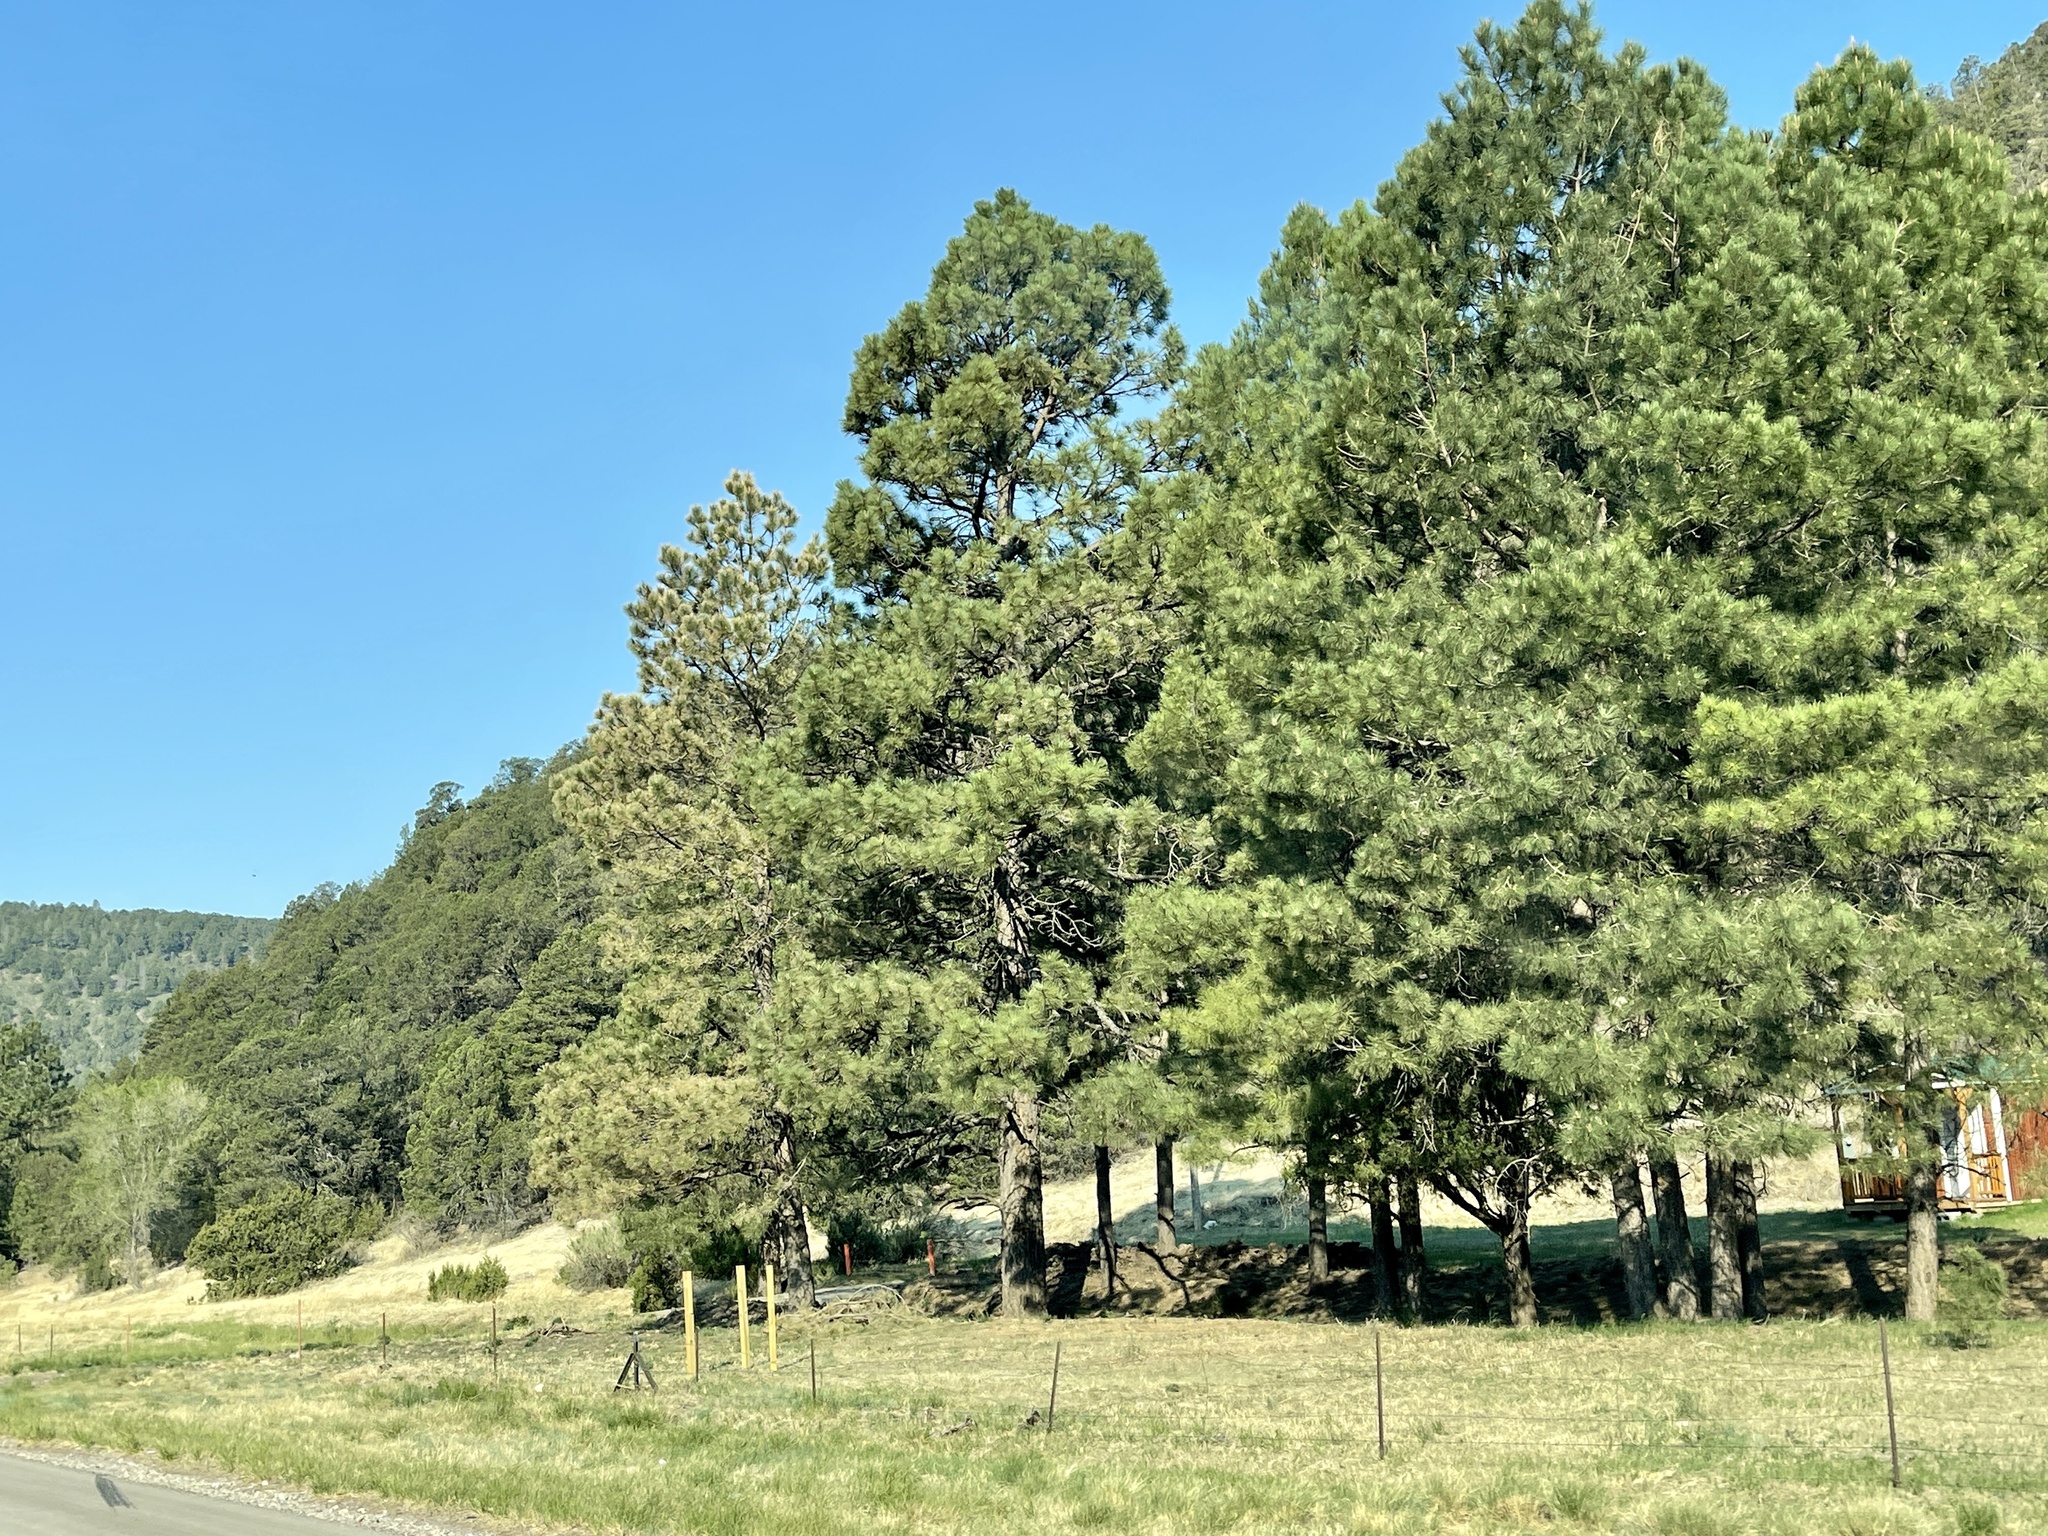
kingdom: Plantae
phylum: Tracheophyta
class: Pinopsida
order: Pinales
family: Pinaceae
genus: Pinus
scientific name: Pinus ponderosa
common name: Western yellow-pine
